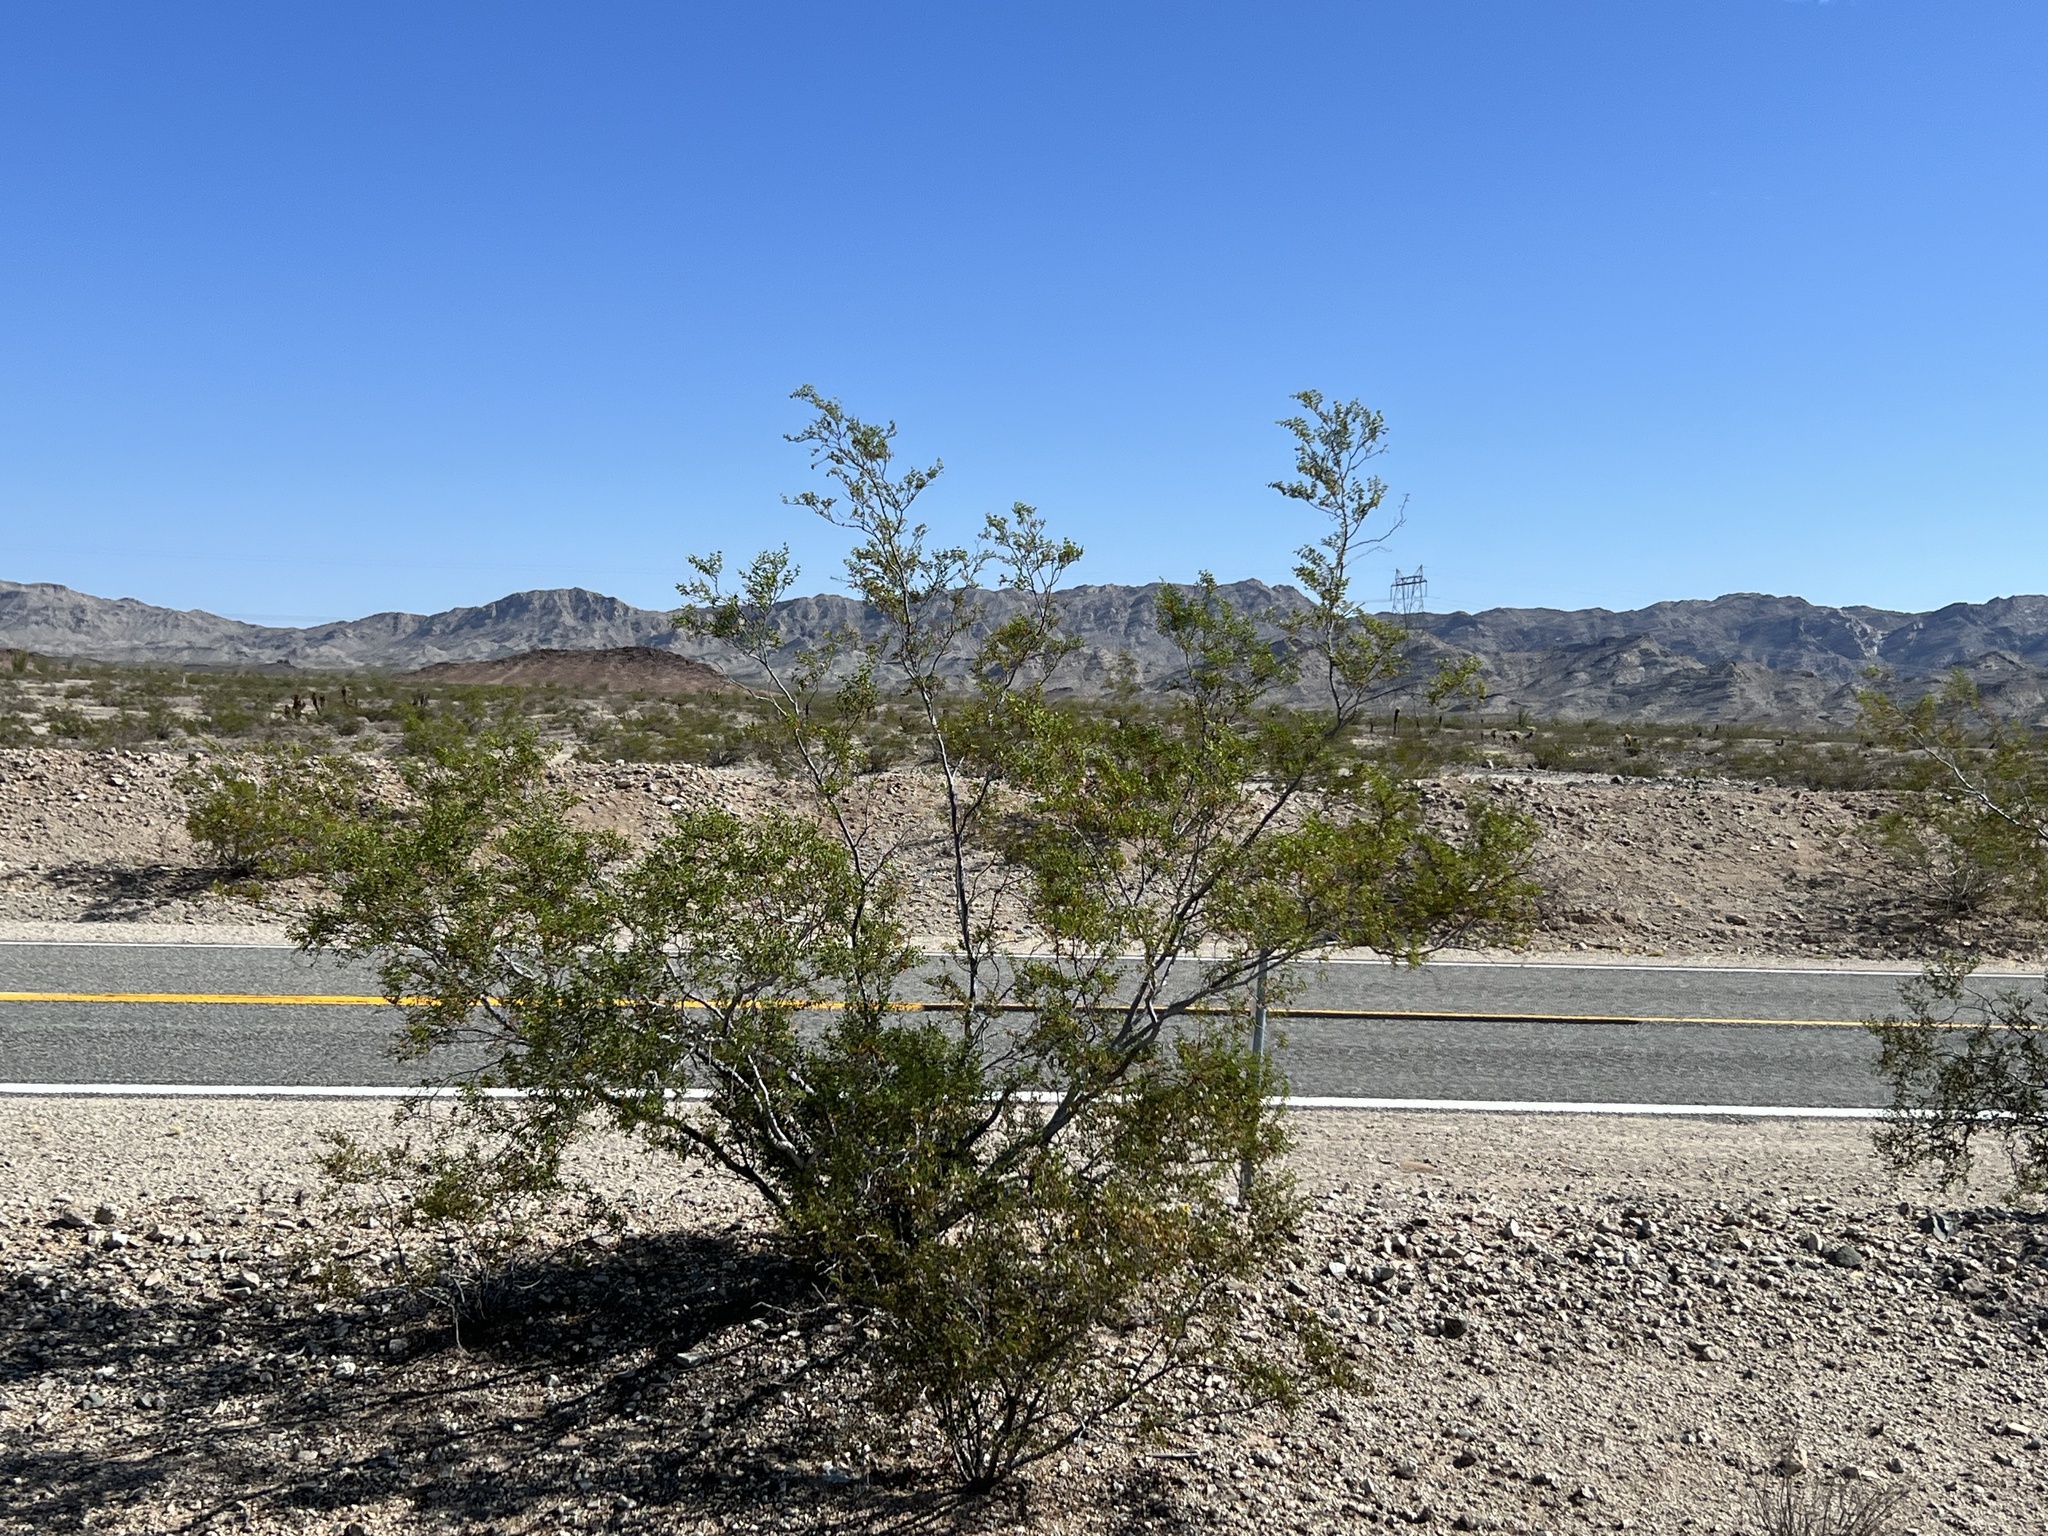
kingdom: Plantae
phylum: Tracheophyta
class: Magnoliopsida
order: Zygophyllales
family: Zygophyllaceae
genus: Larrea
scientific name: Larrea tridentata
